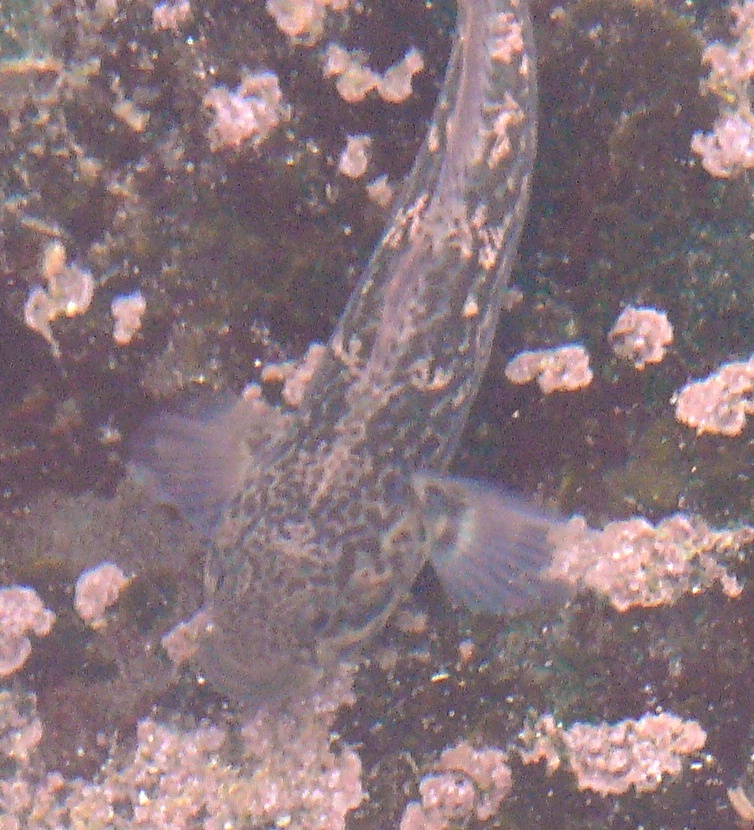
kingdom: Animalia
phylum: Chordata
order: Perciformes
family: Gobiidae
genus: Caffrogobius
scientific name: Caffrogobius caffer
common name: Banded goby
